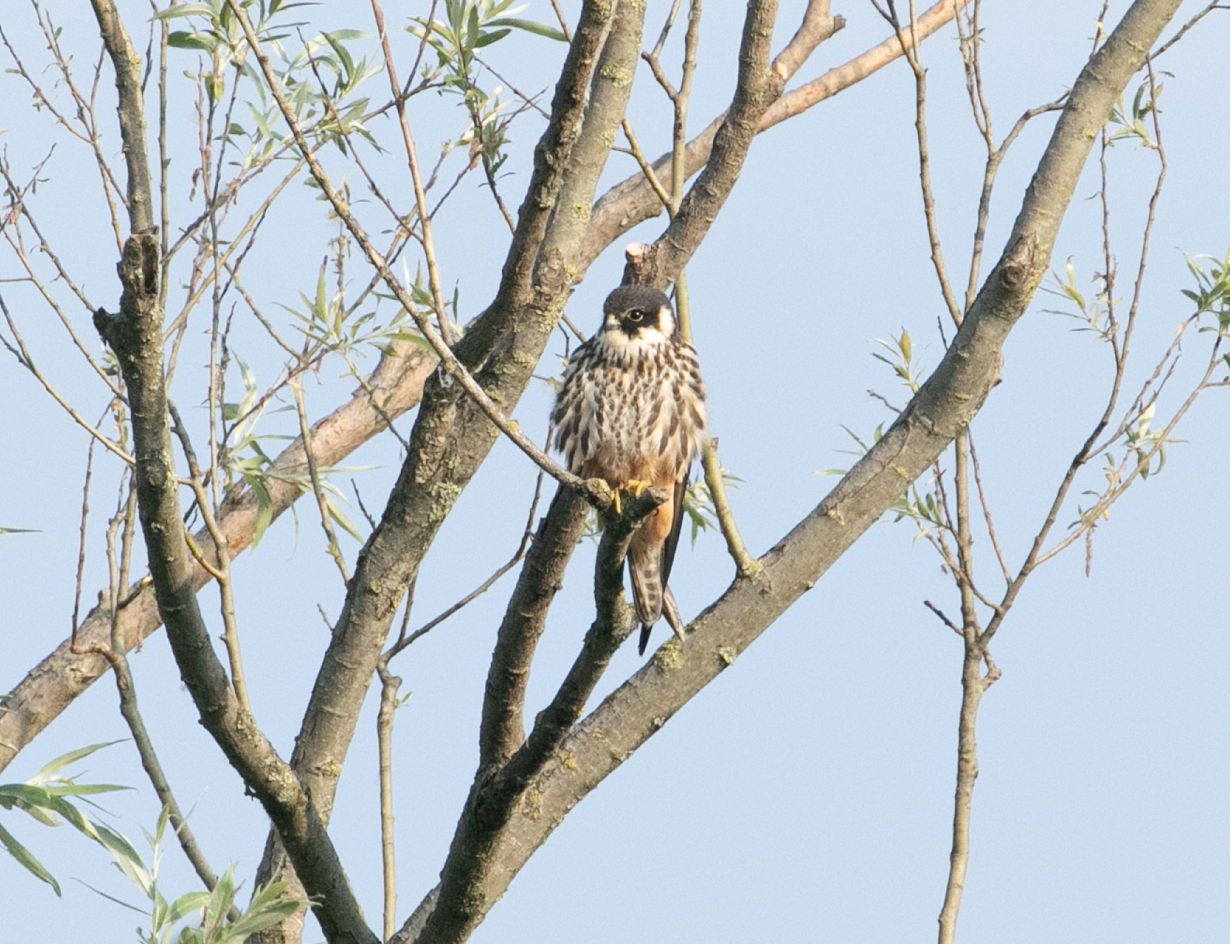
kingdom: Animalia
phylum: Chordata
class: Aves
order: Falconiformes
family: Falconidae
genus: Falco
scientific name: Falco subbuteo
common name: Eurasian hobby
